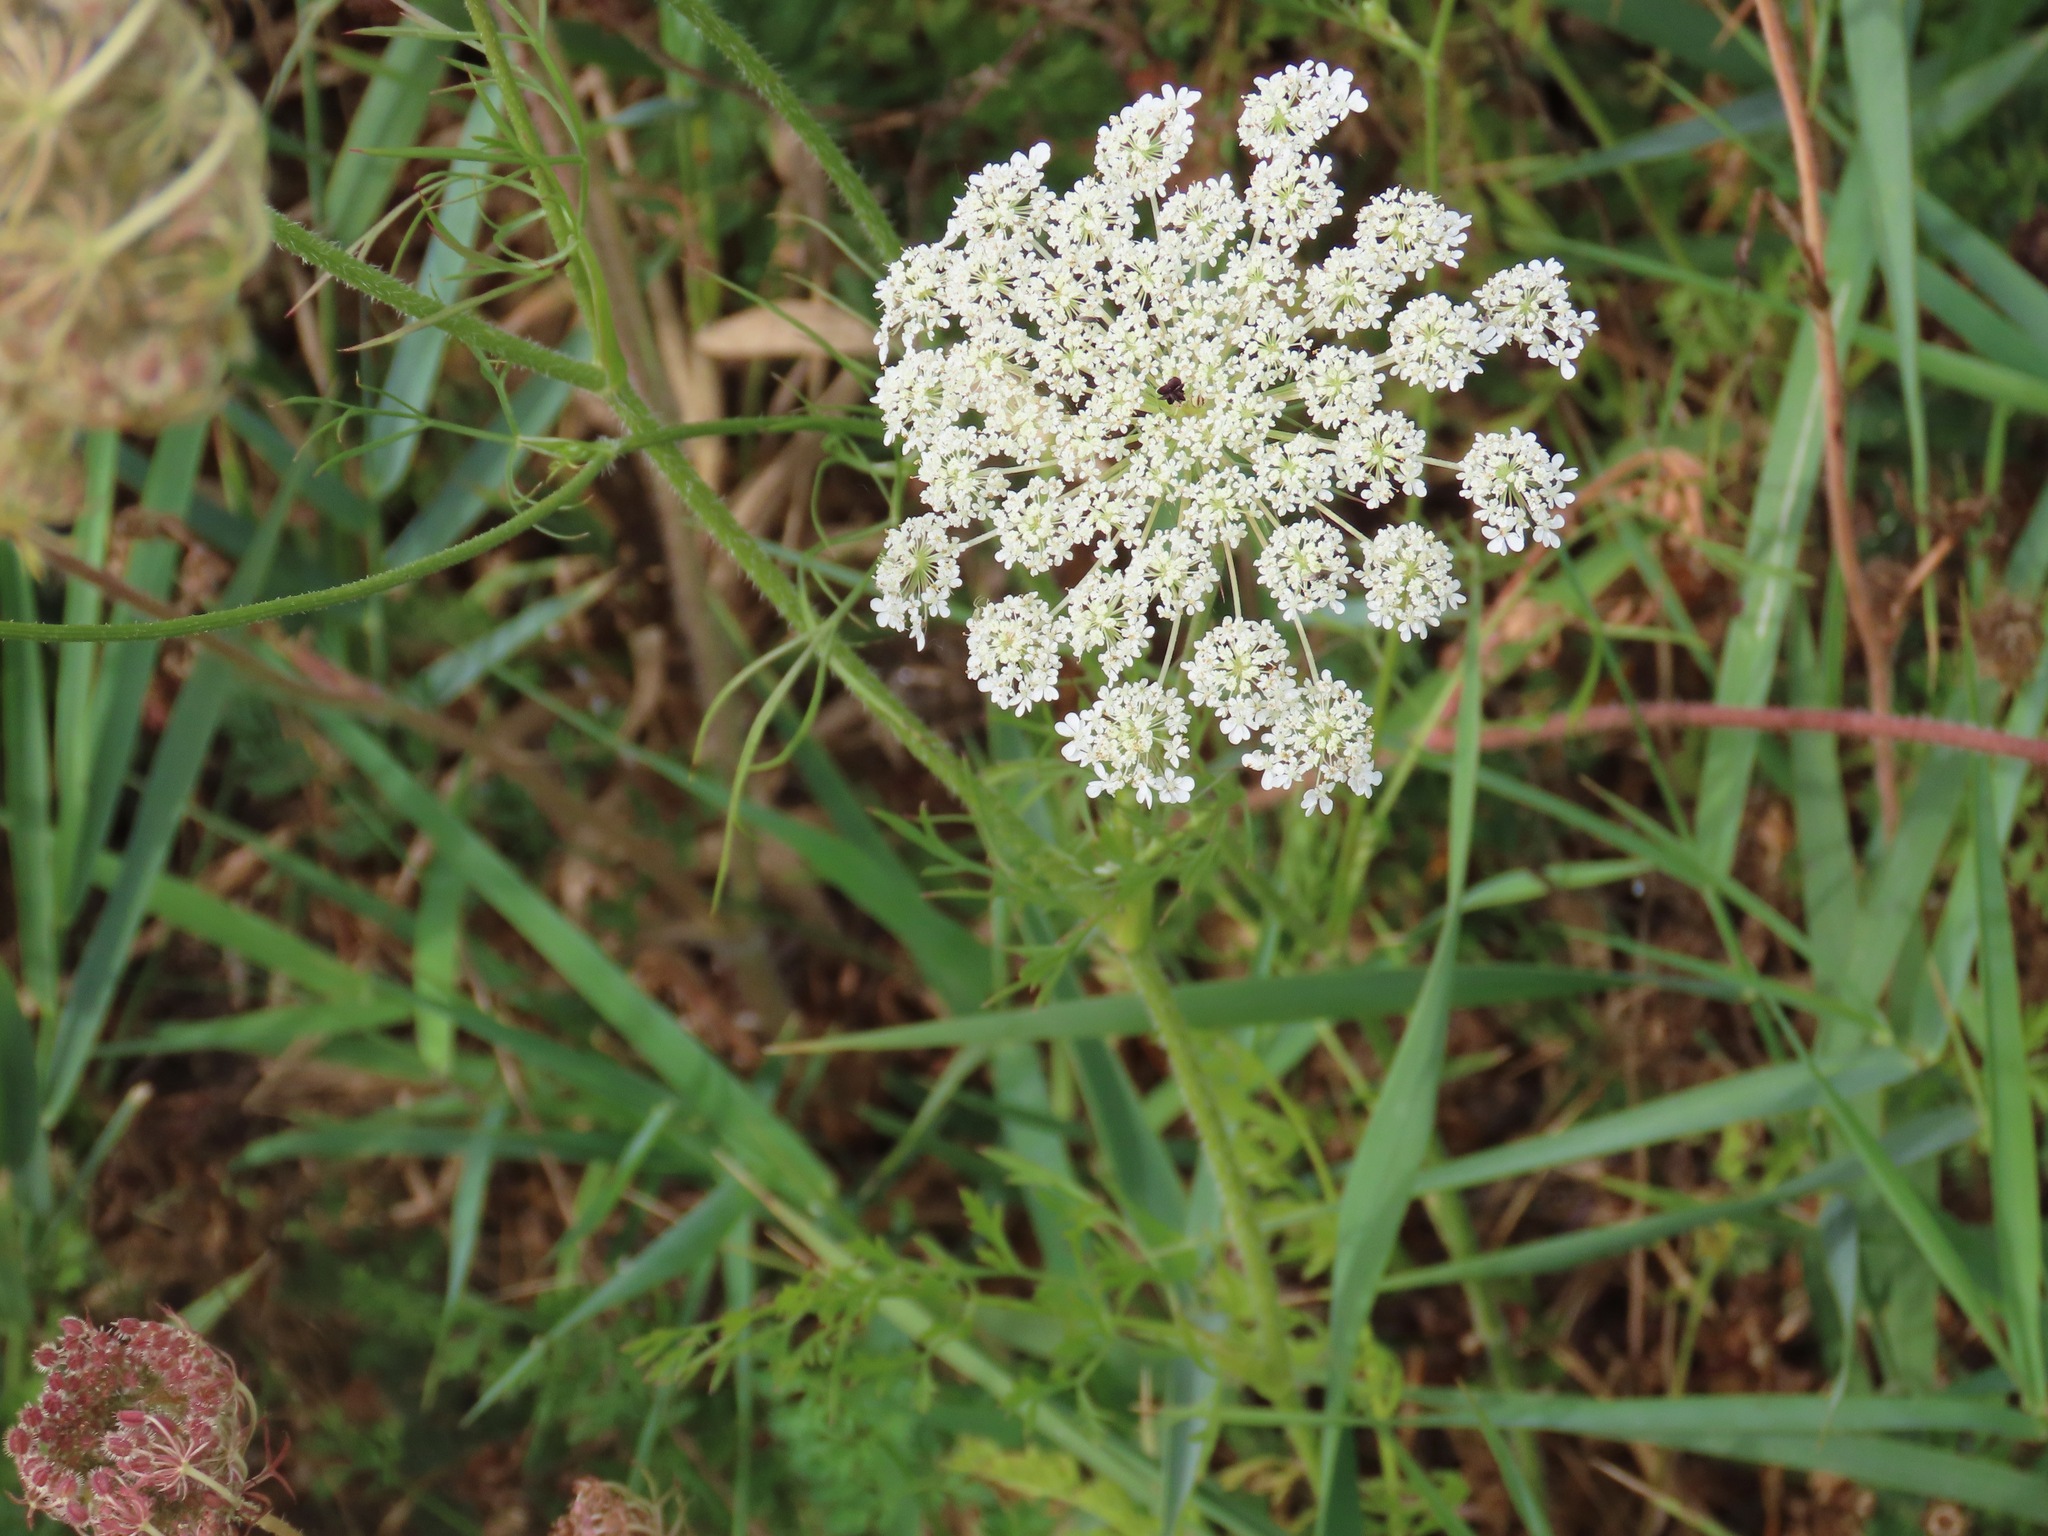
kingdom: Plantae
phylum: Tracheophyta
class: Magnoliopsida
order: Apiales
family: Apiaceae
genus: Daucus
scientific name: Daucus carota
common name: Wild carrot
